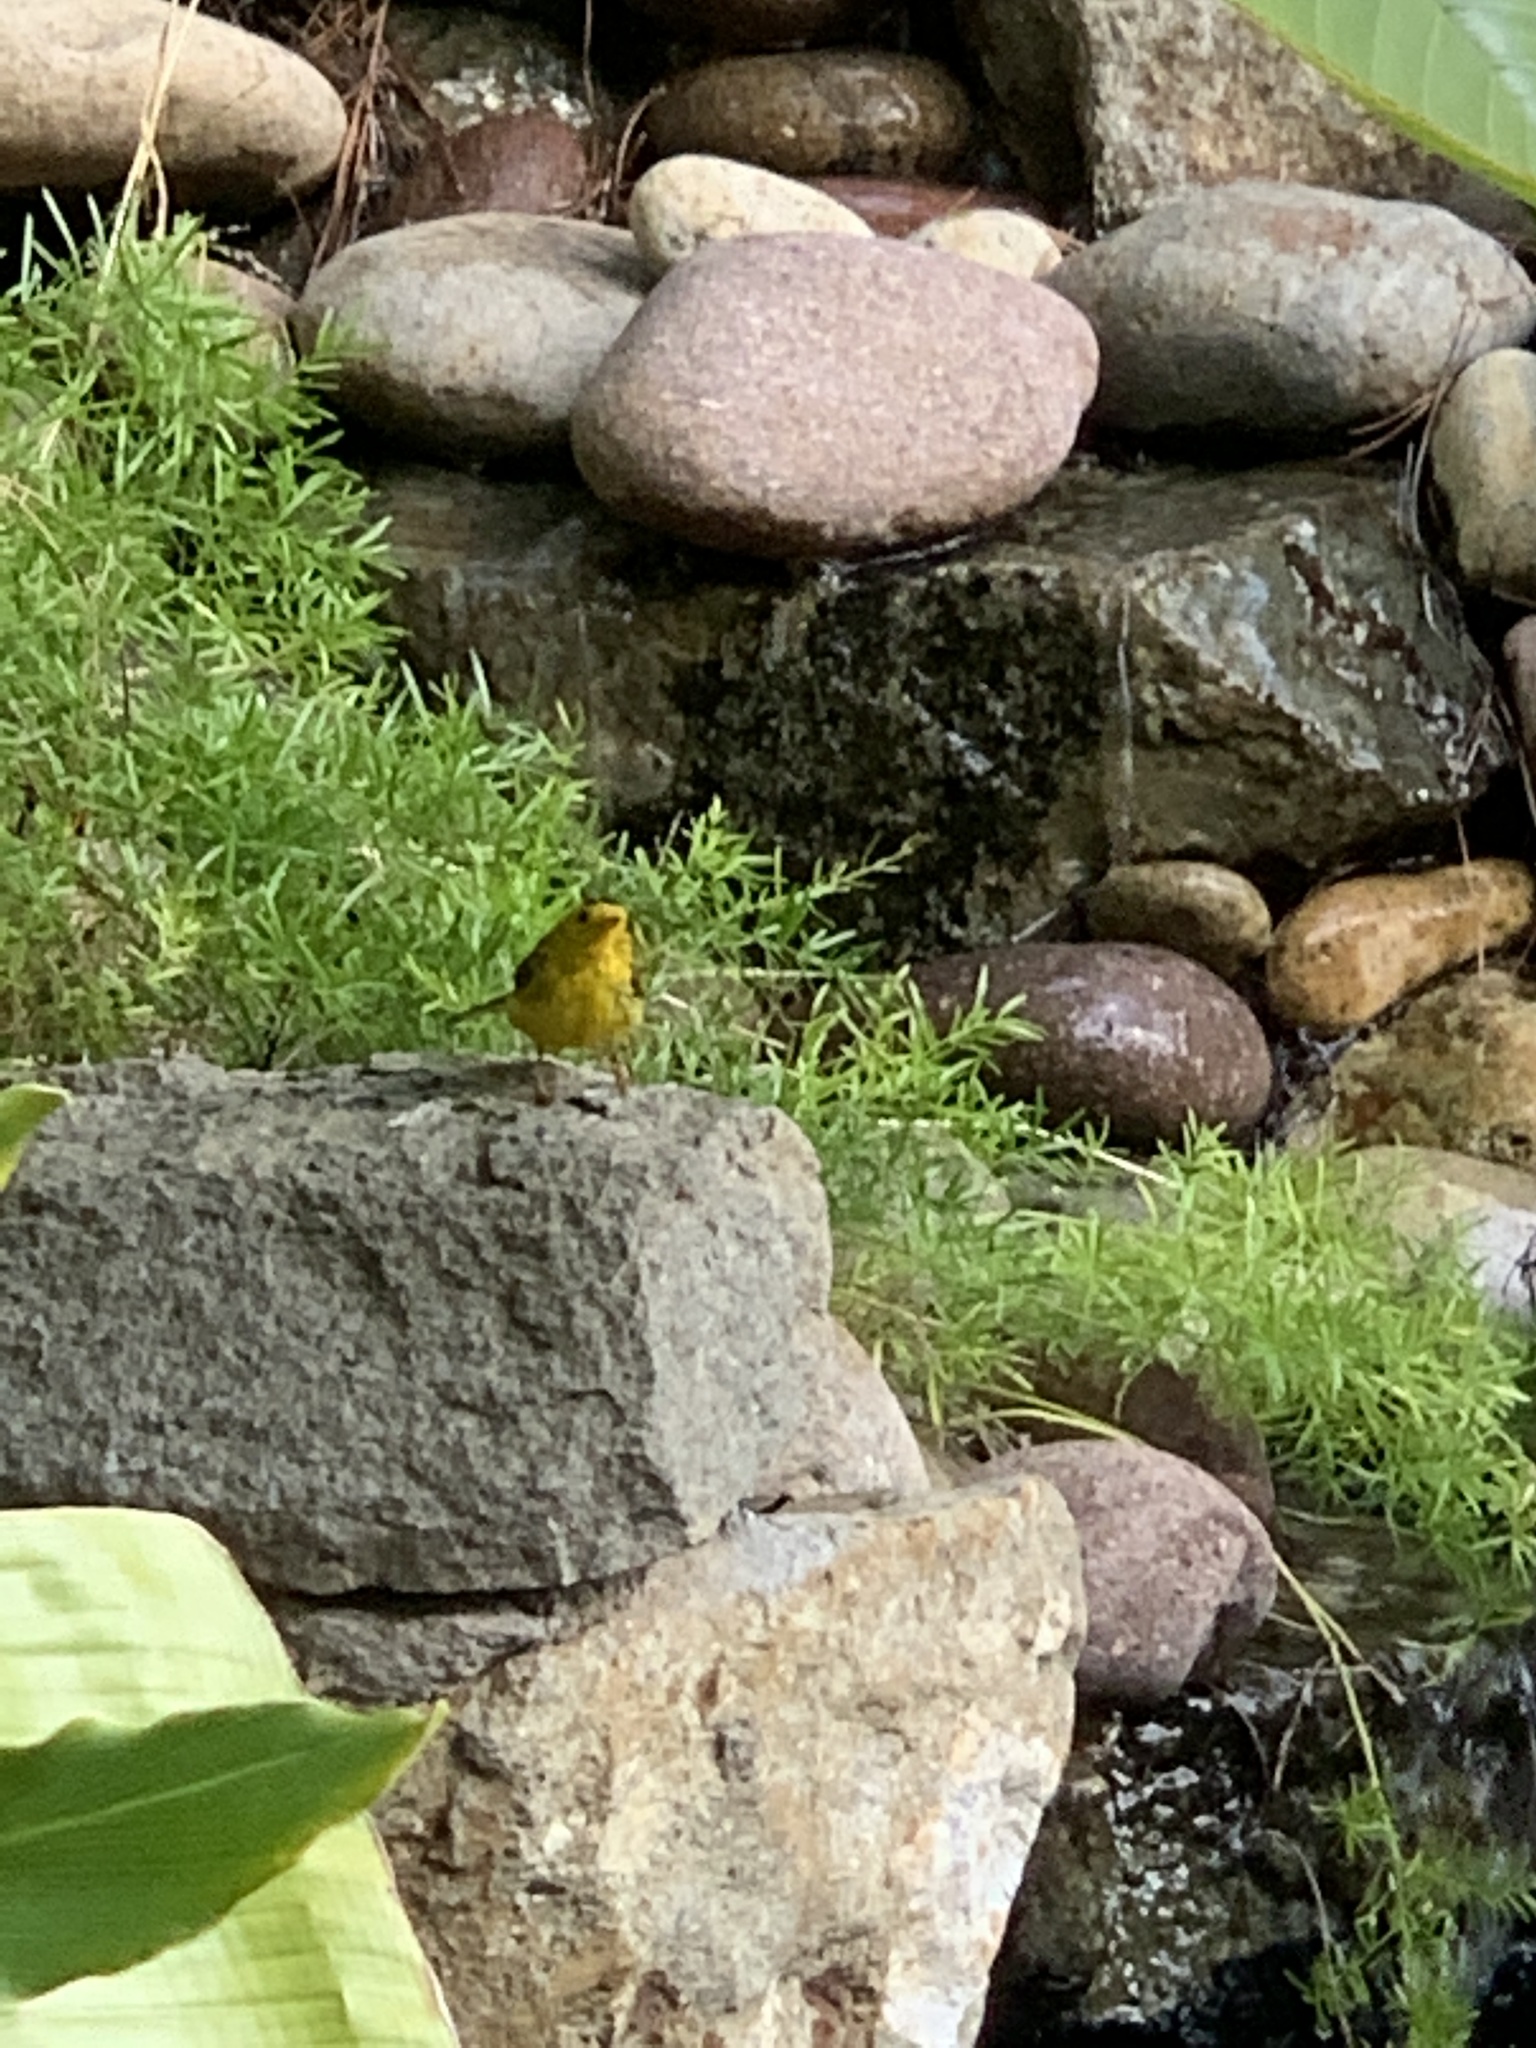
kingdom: Animalia
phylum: Chordata
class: Aves
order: Passeriformes
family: Parulidae
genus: Cardellina
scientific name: Cardellina pusilla
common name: Wilson's warbler
